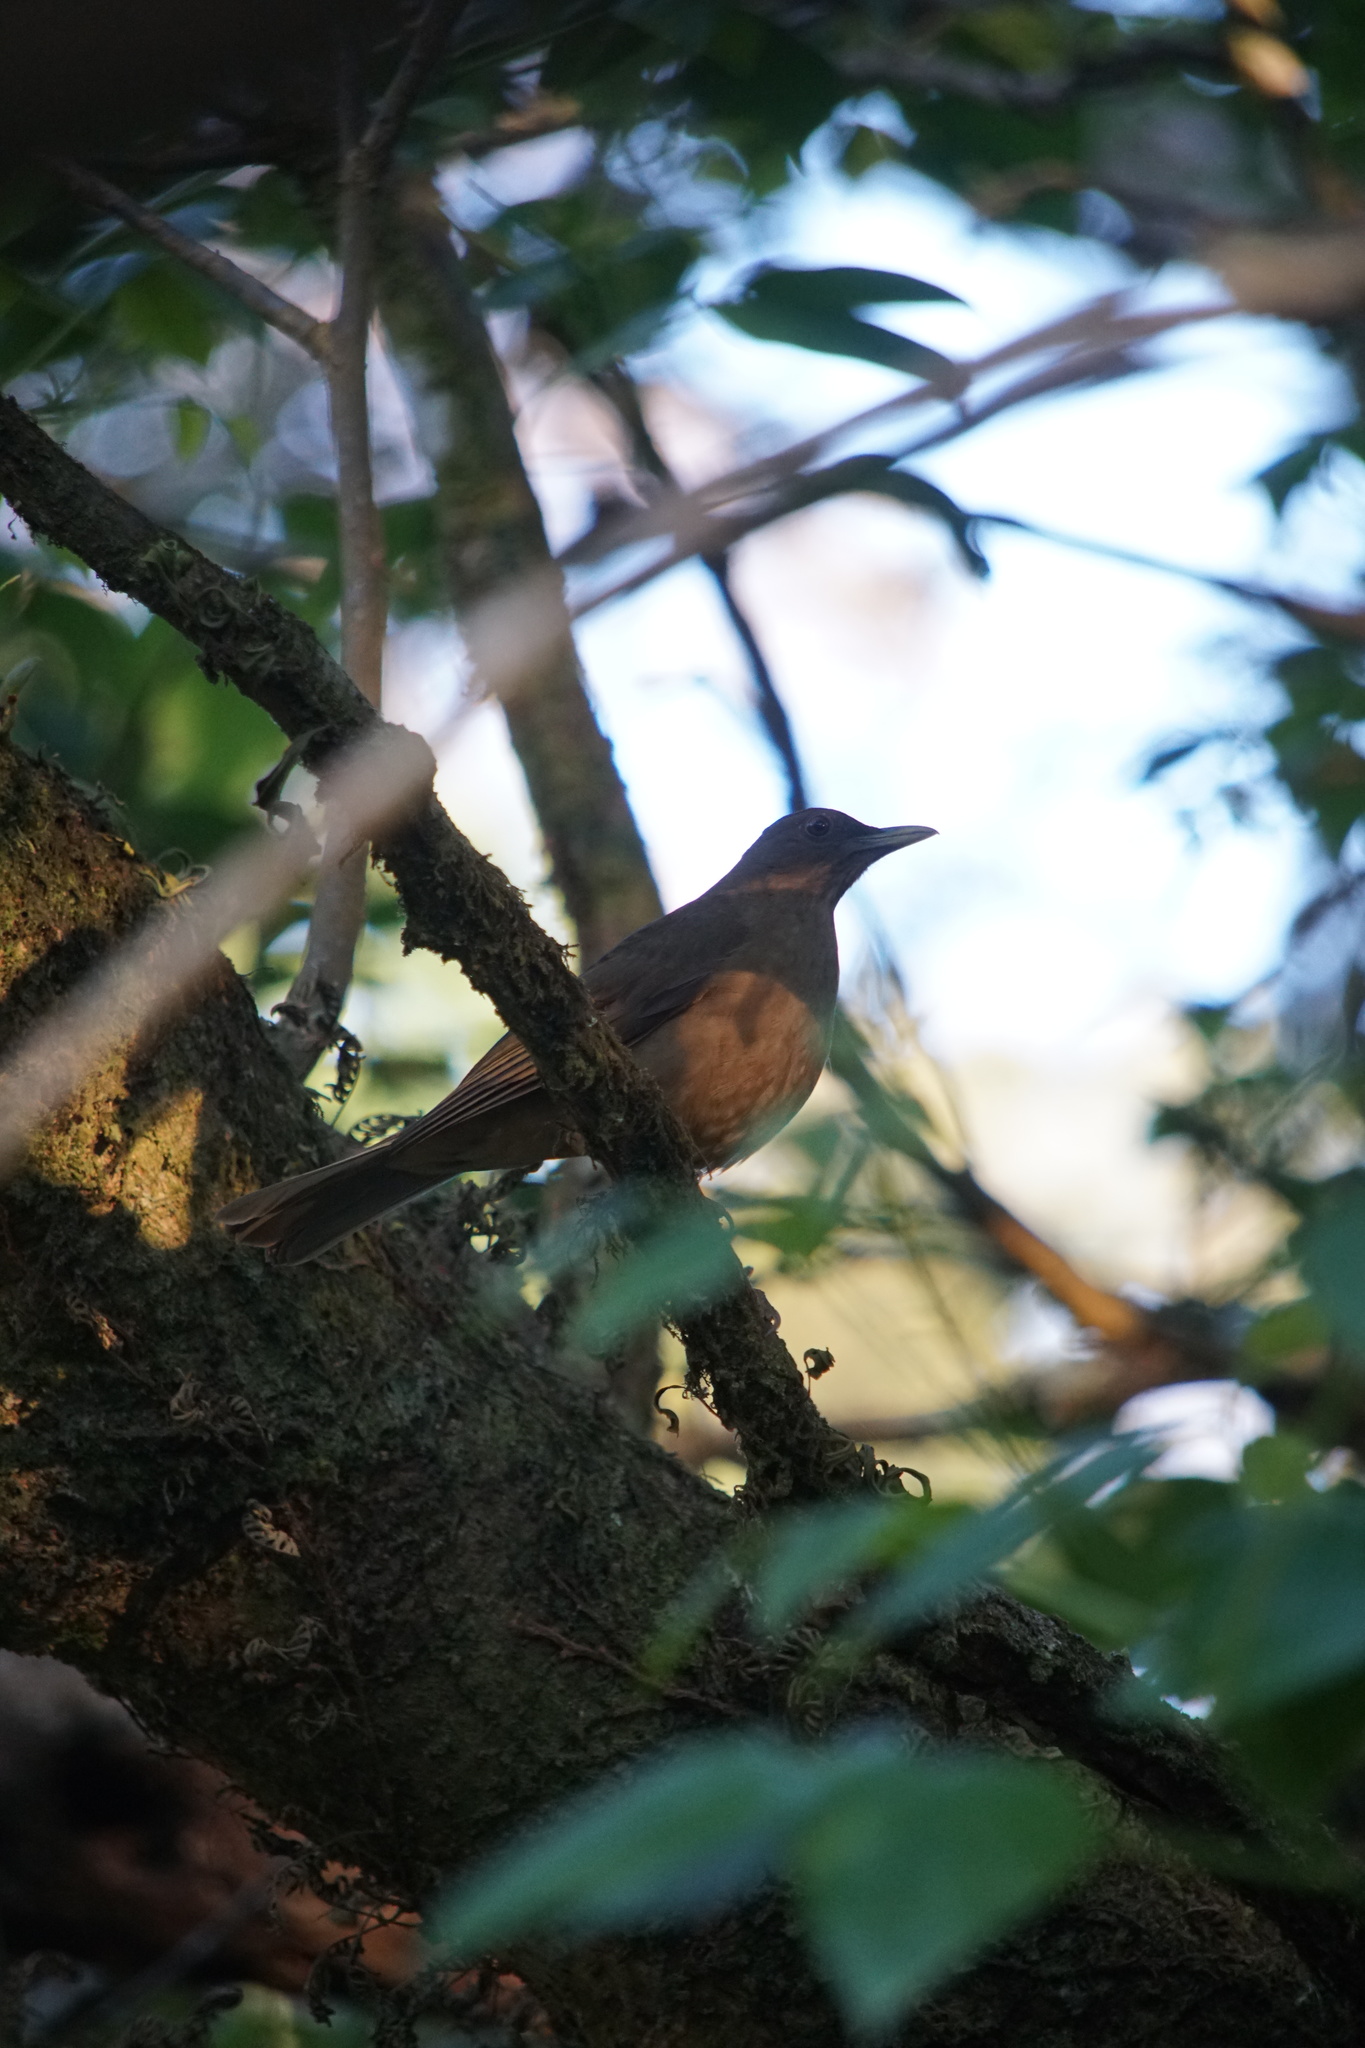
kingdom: Animalia
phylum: Chordata
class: Aves
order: Passeriformes
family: Turdidae
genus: Turdus
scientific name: Turdus grayi
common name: Clay-colored thrush
